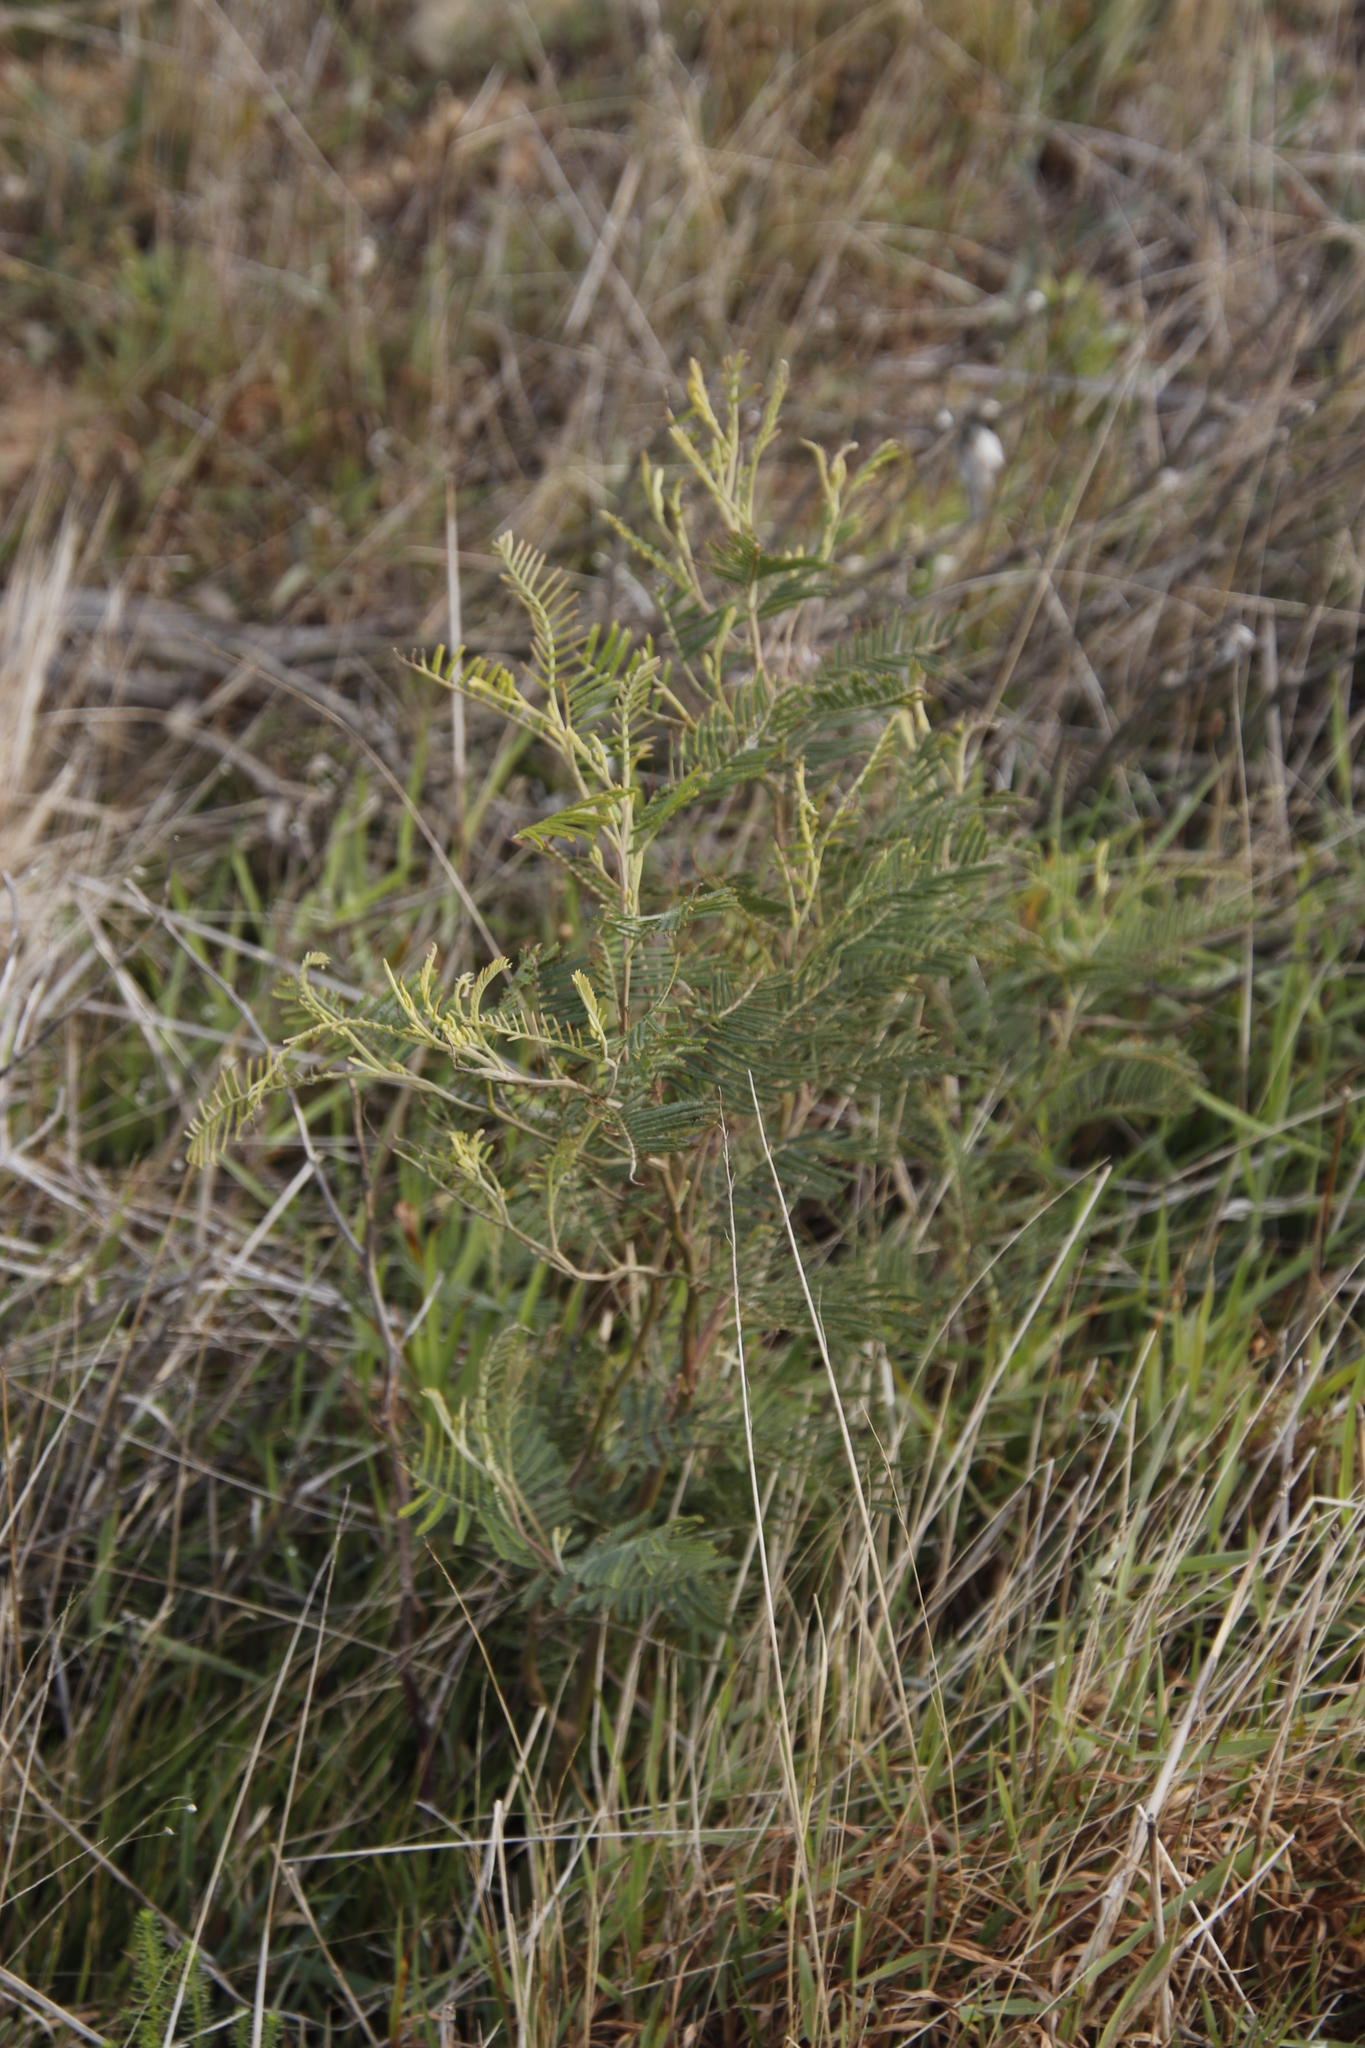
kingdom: Plantae
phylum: Tracheophyta
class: Magnoliopsida
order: Fabales
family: Fabaceae
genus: Acacia
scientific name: Acacia mearnsii
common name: Black wattle
